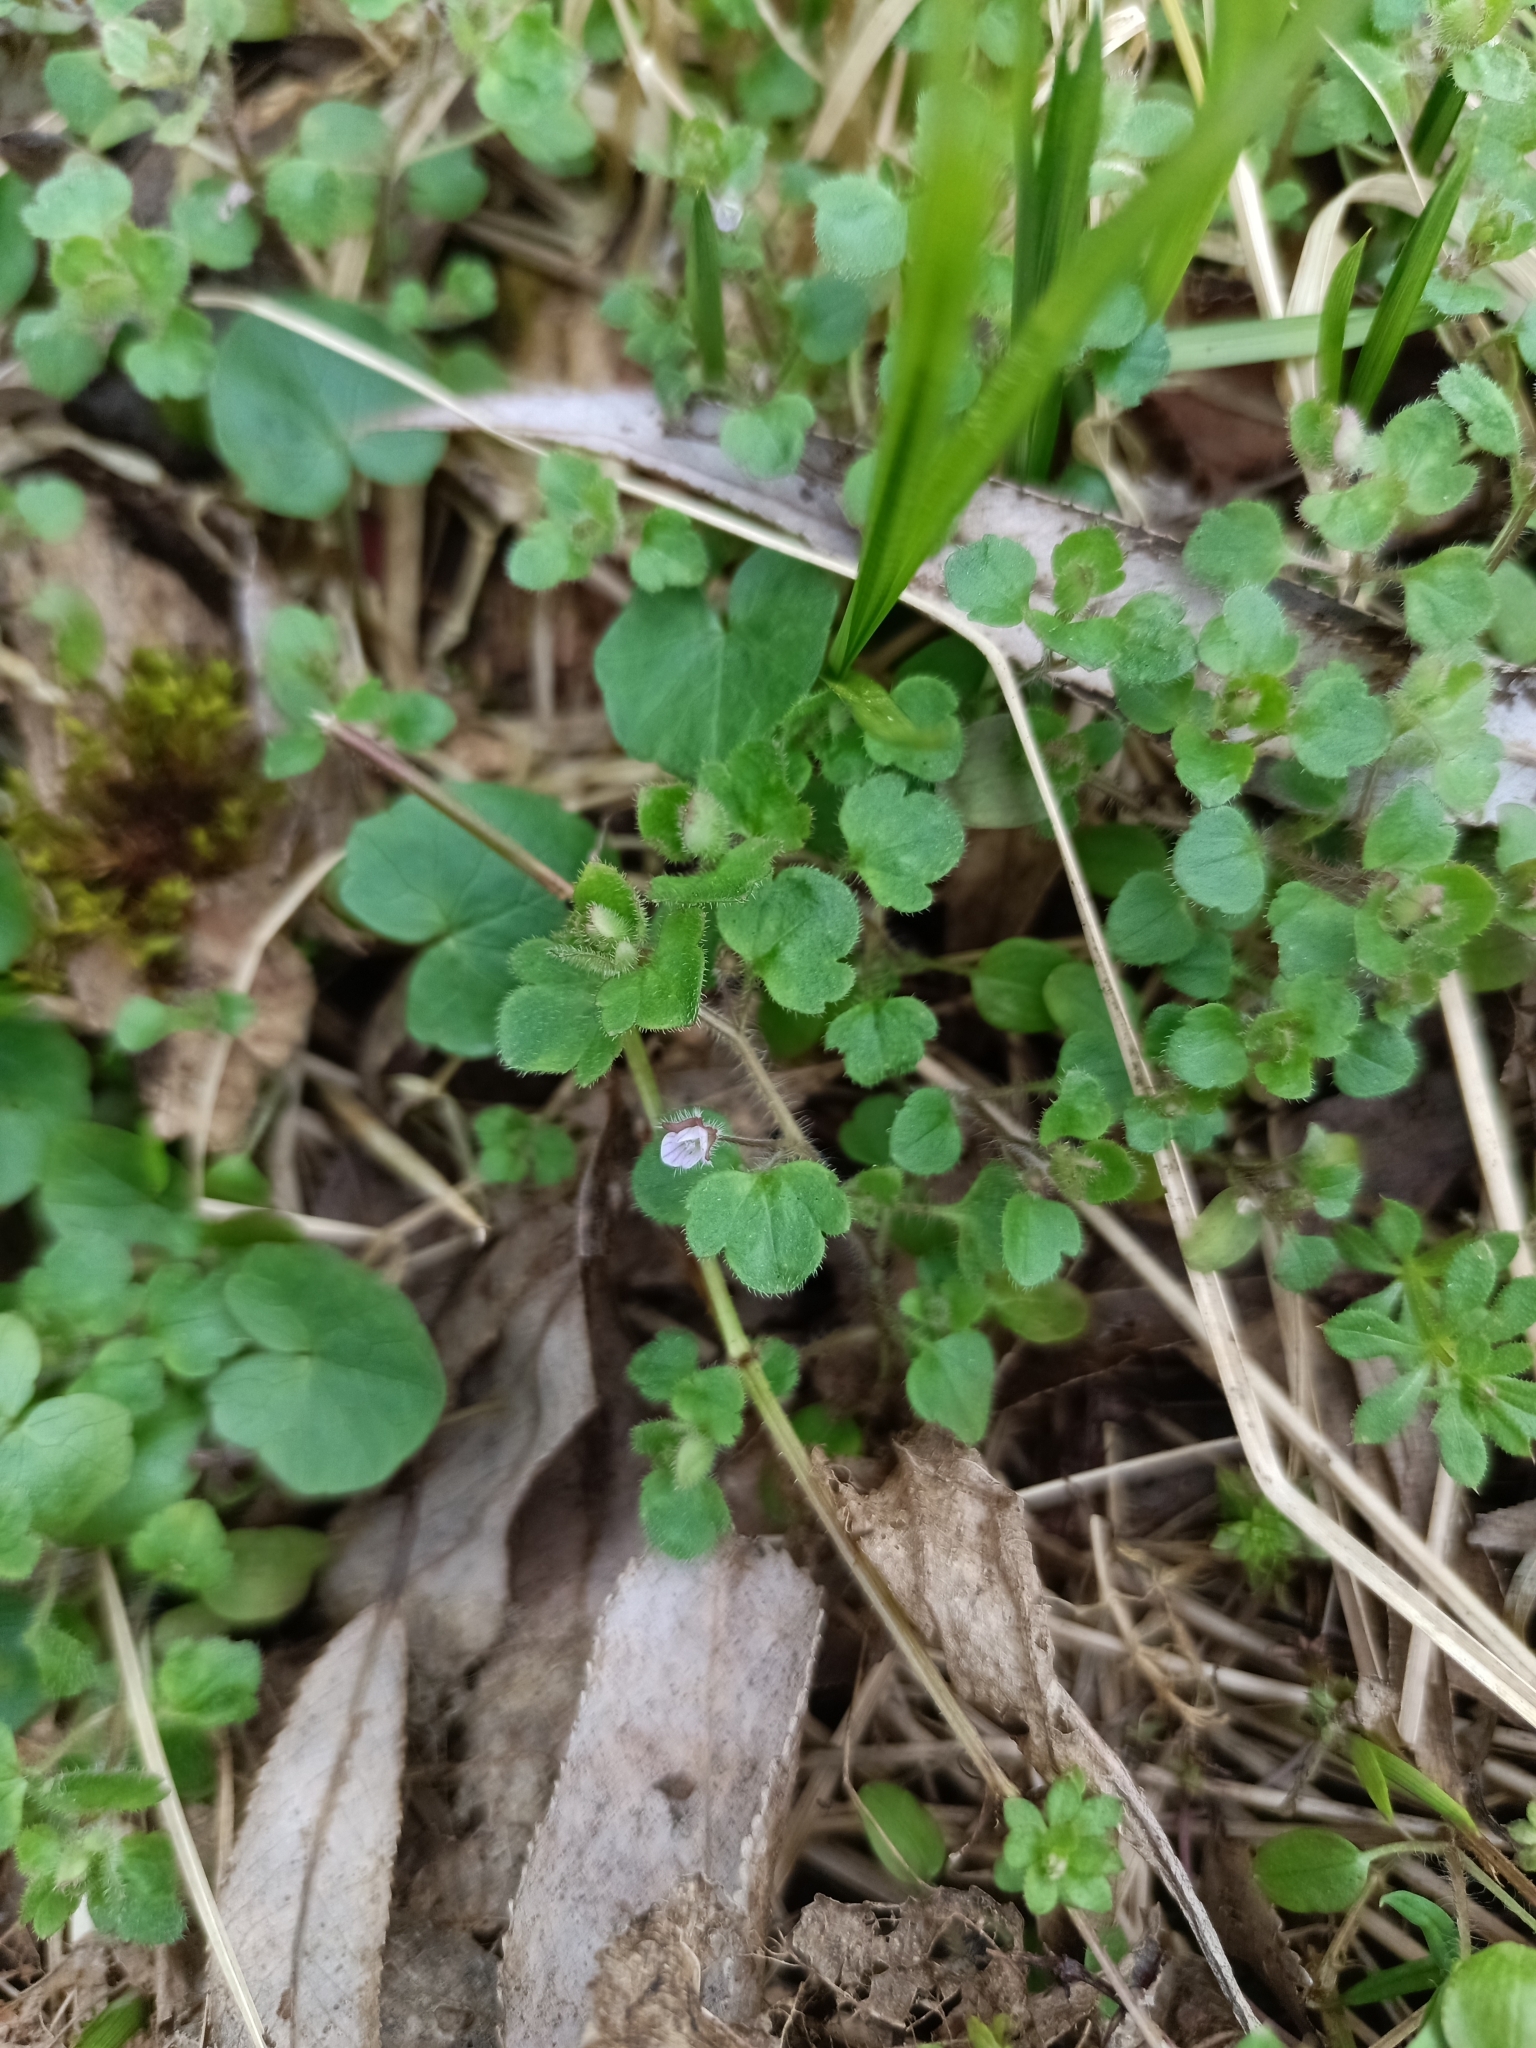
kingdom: Plantae
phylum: Tracheophyta
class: Magnoliopsida
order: Lamiales
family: Plantaginaceae
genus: Veronica
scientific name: Veronica sublobata
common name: False ivy-leaved speedwell
